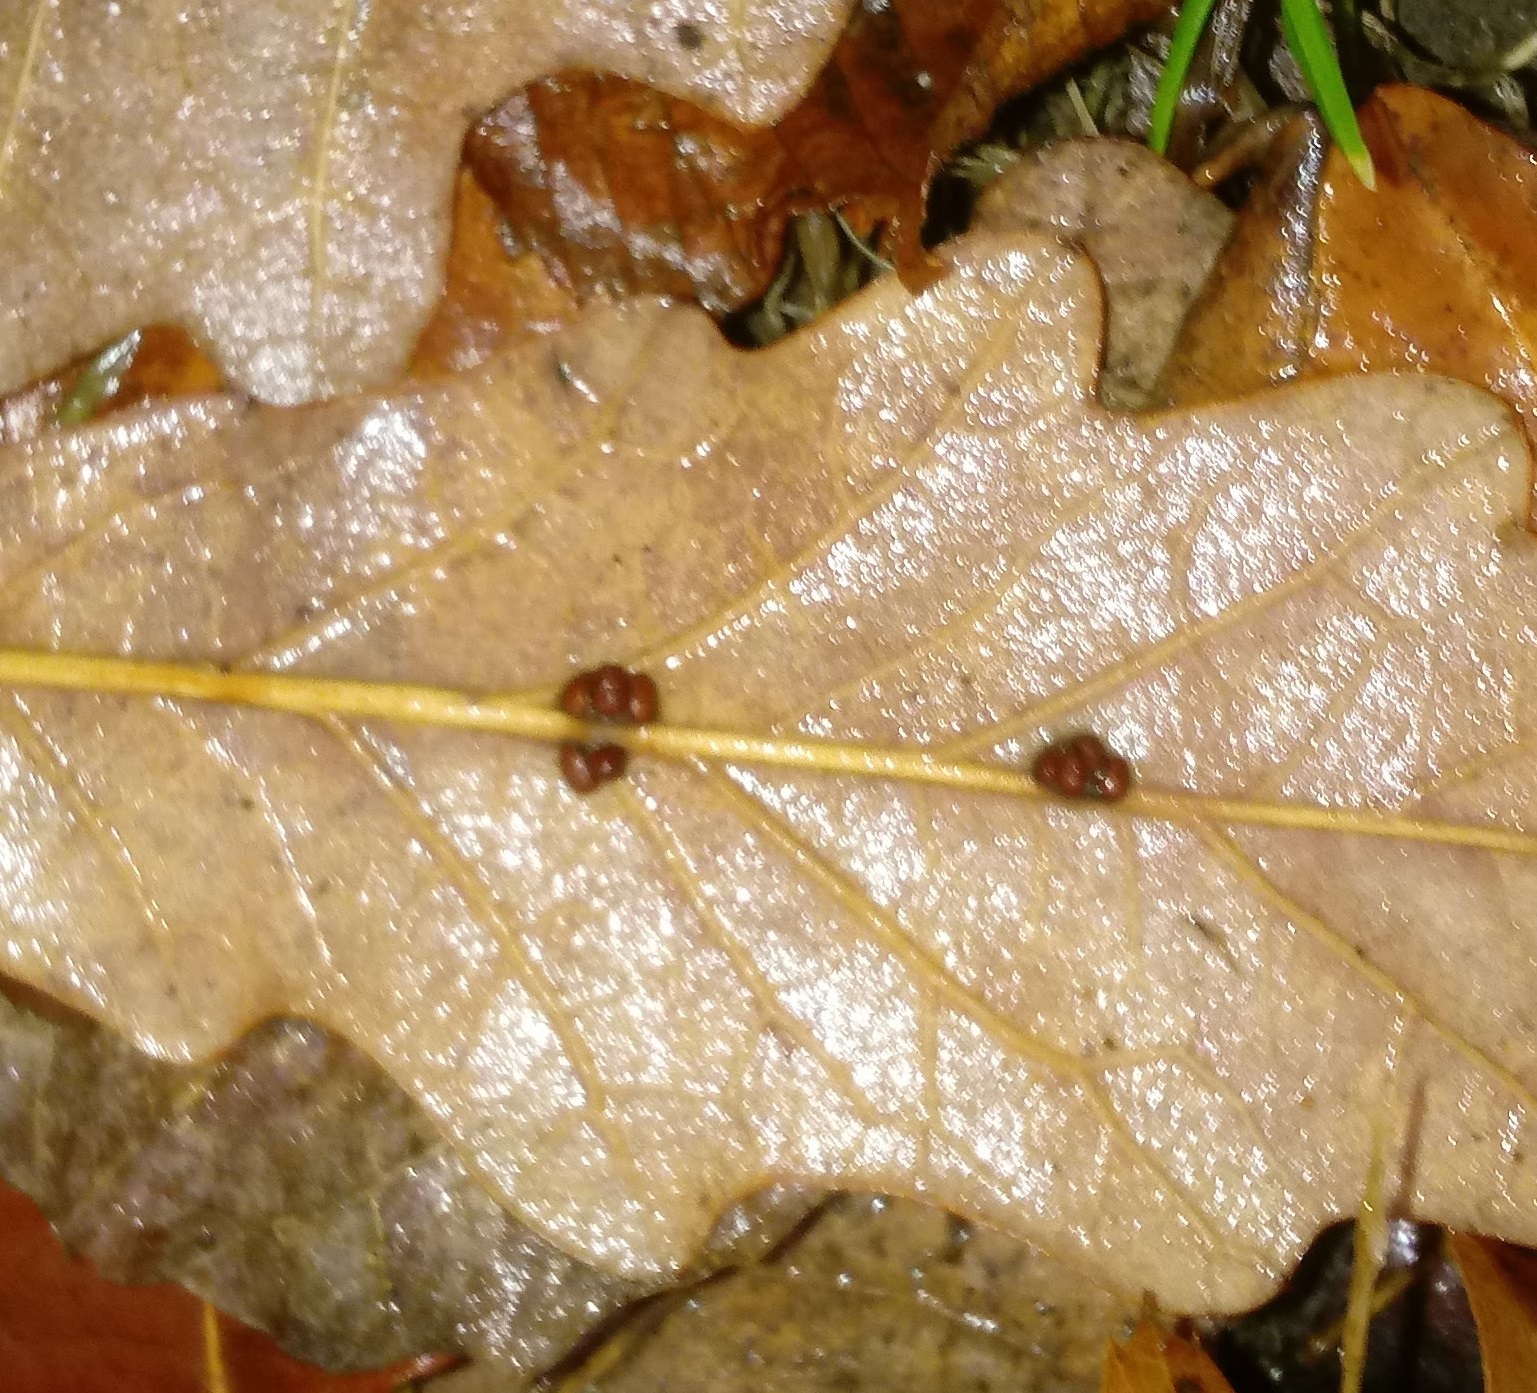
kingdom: Animalia
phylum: Arthropoda
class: Insecta
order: Hymenoptera
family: Cynipidae
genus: Andricus
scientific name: Andricus Druon ignotum
